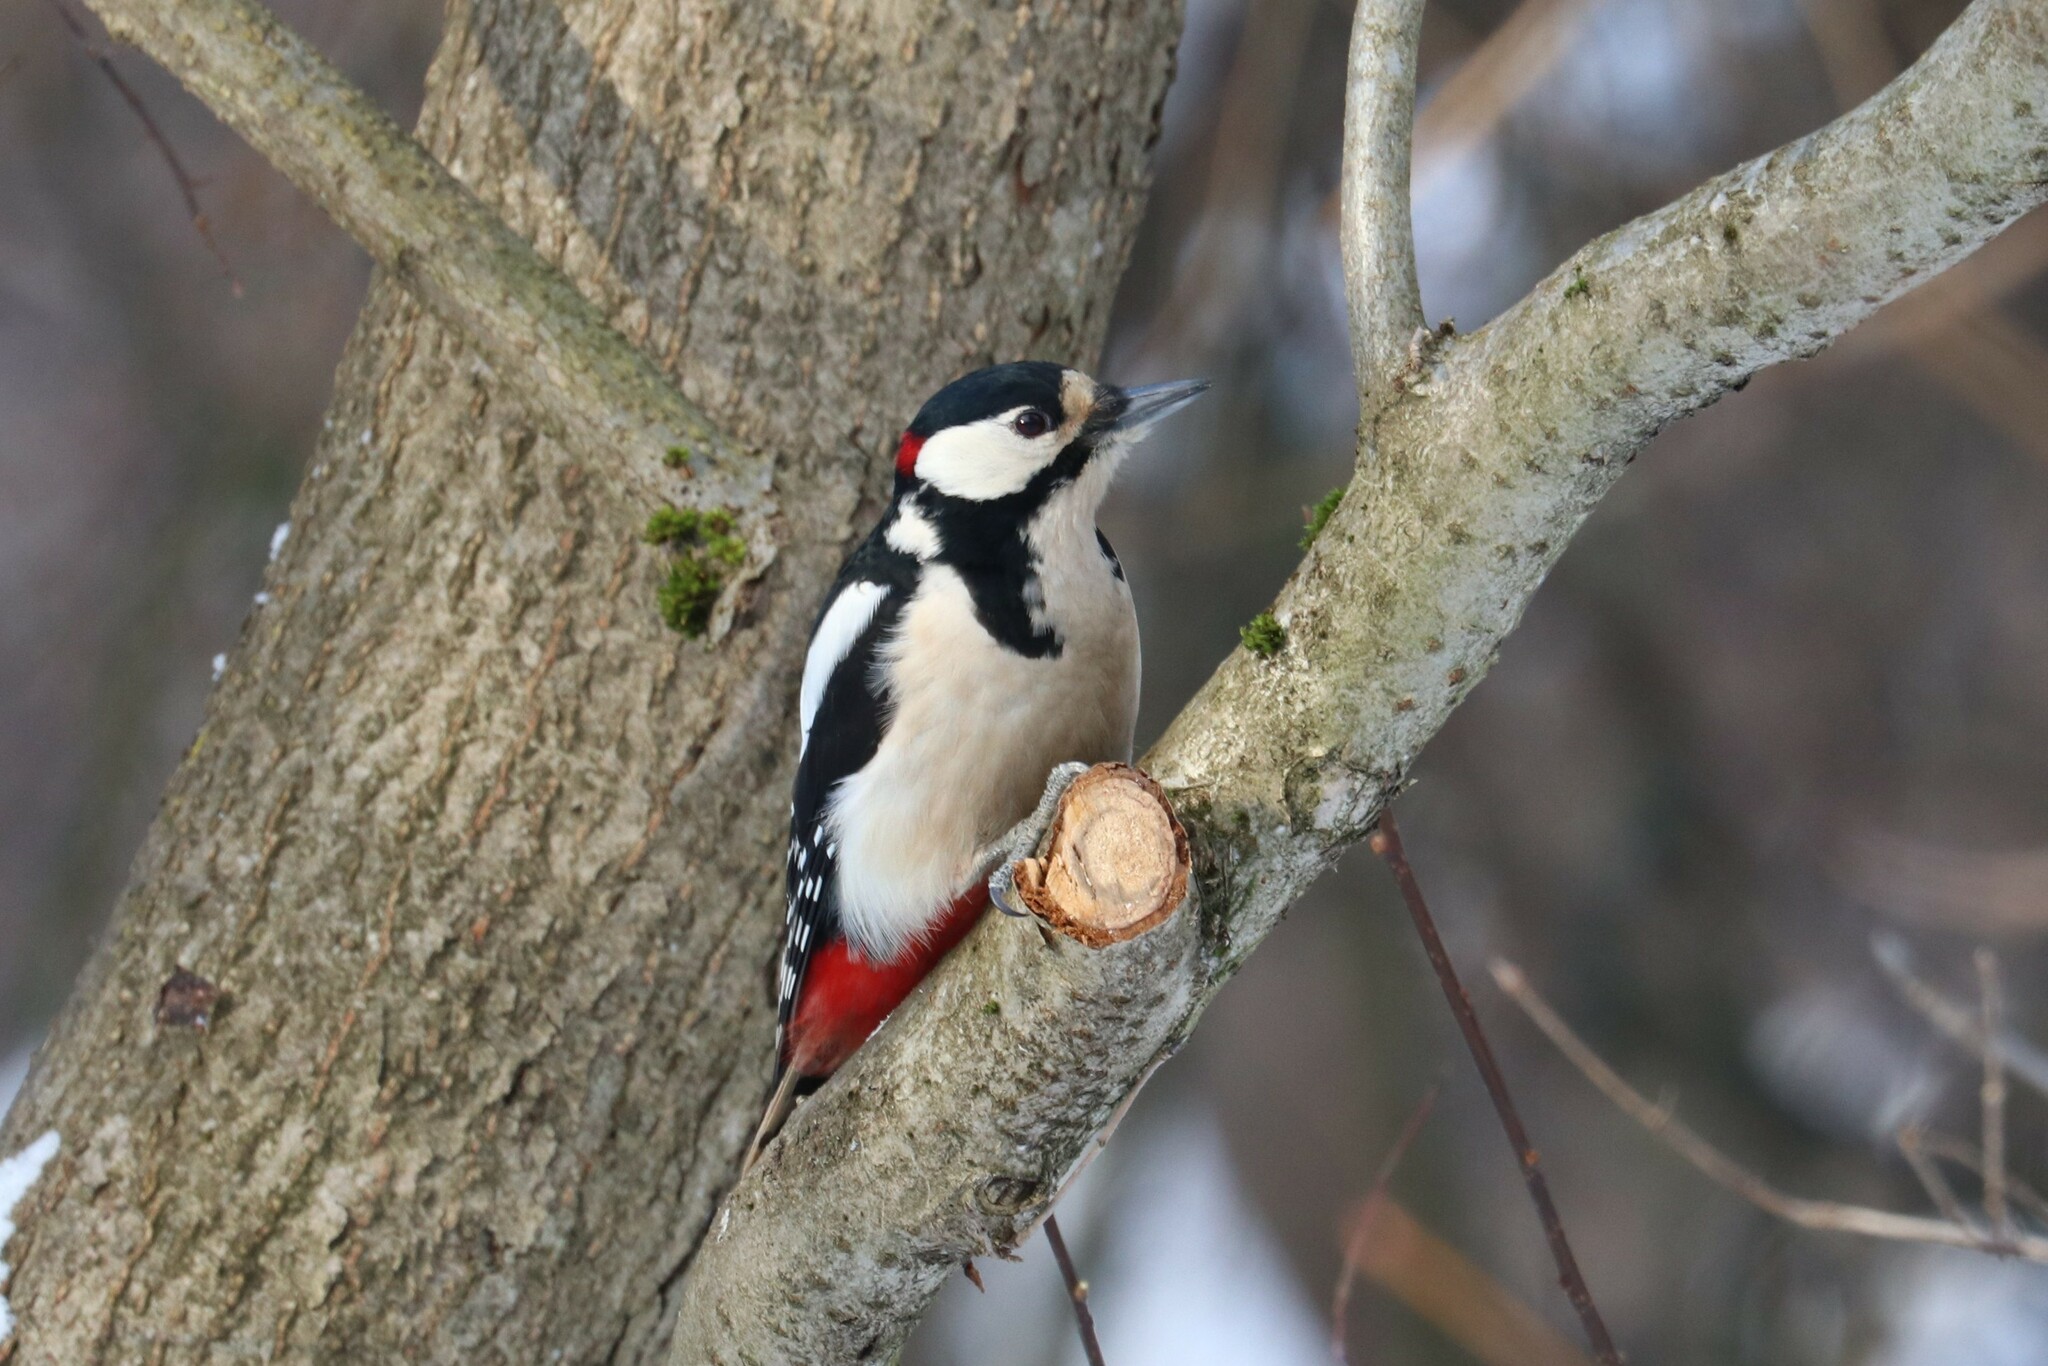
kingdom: Animalia
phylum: Chordata
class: Aves
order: Piciformes
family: Picidae
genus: Dendrocopos
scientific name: Dendrocopos major
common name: Great spotted woodpecker
